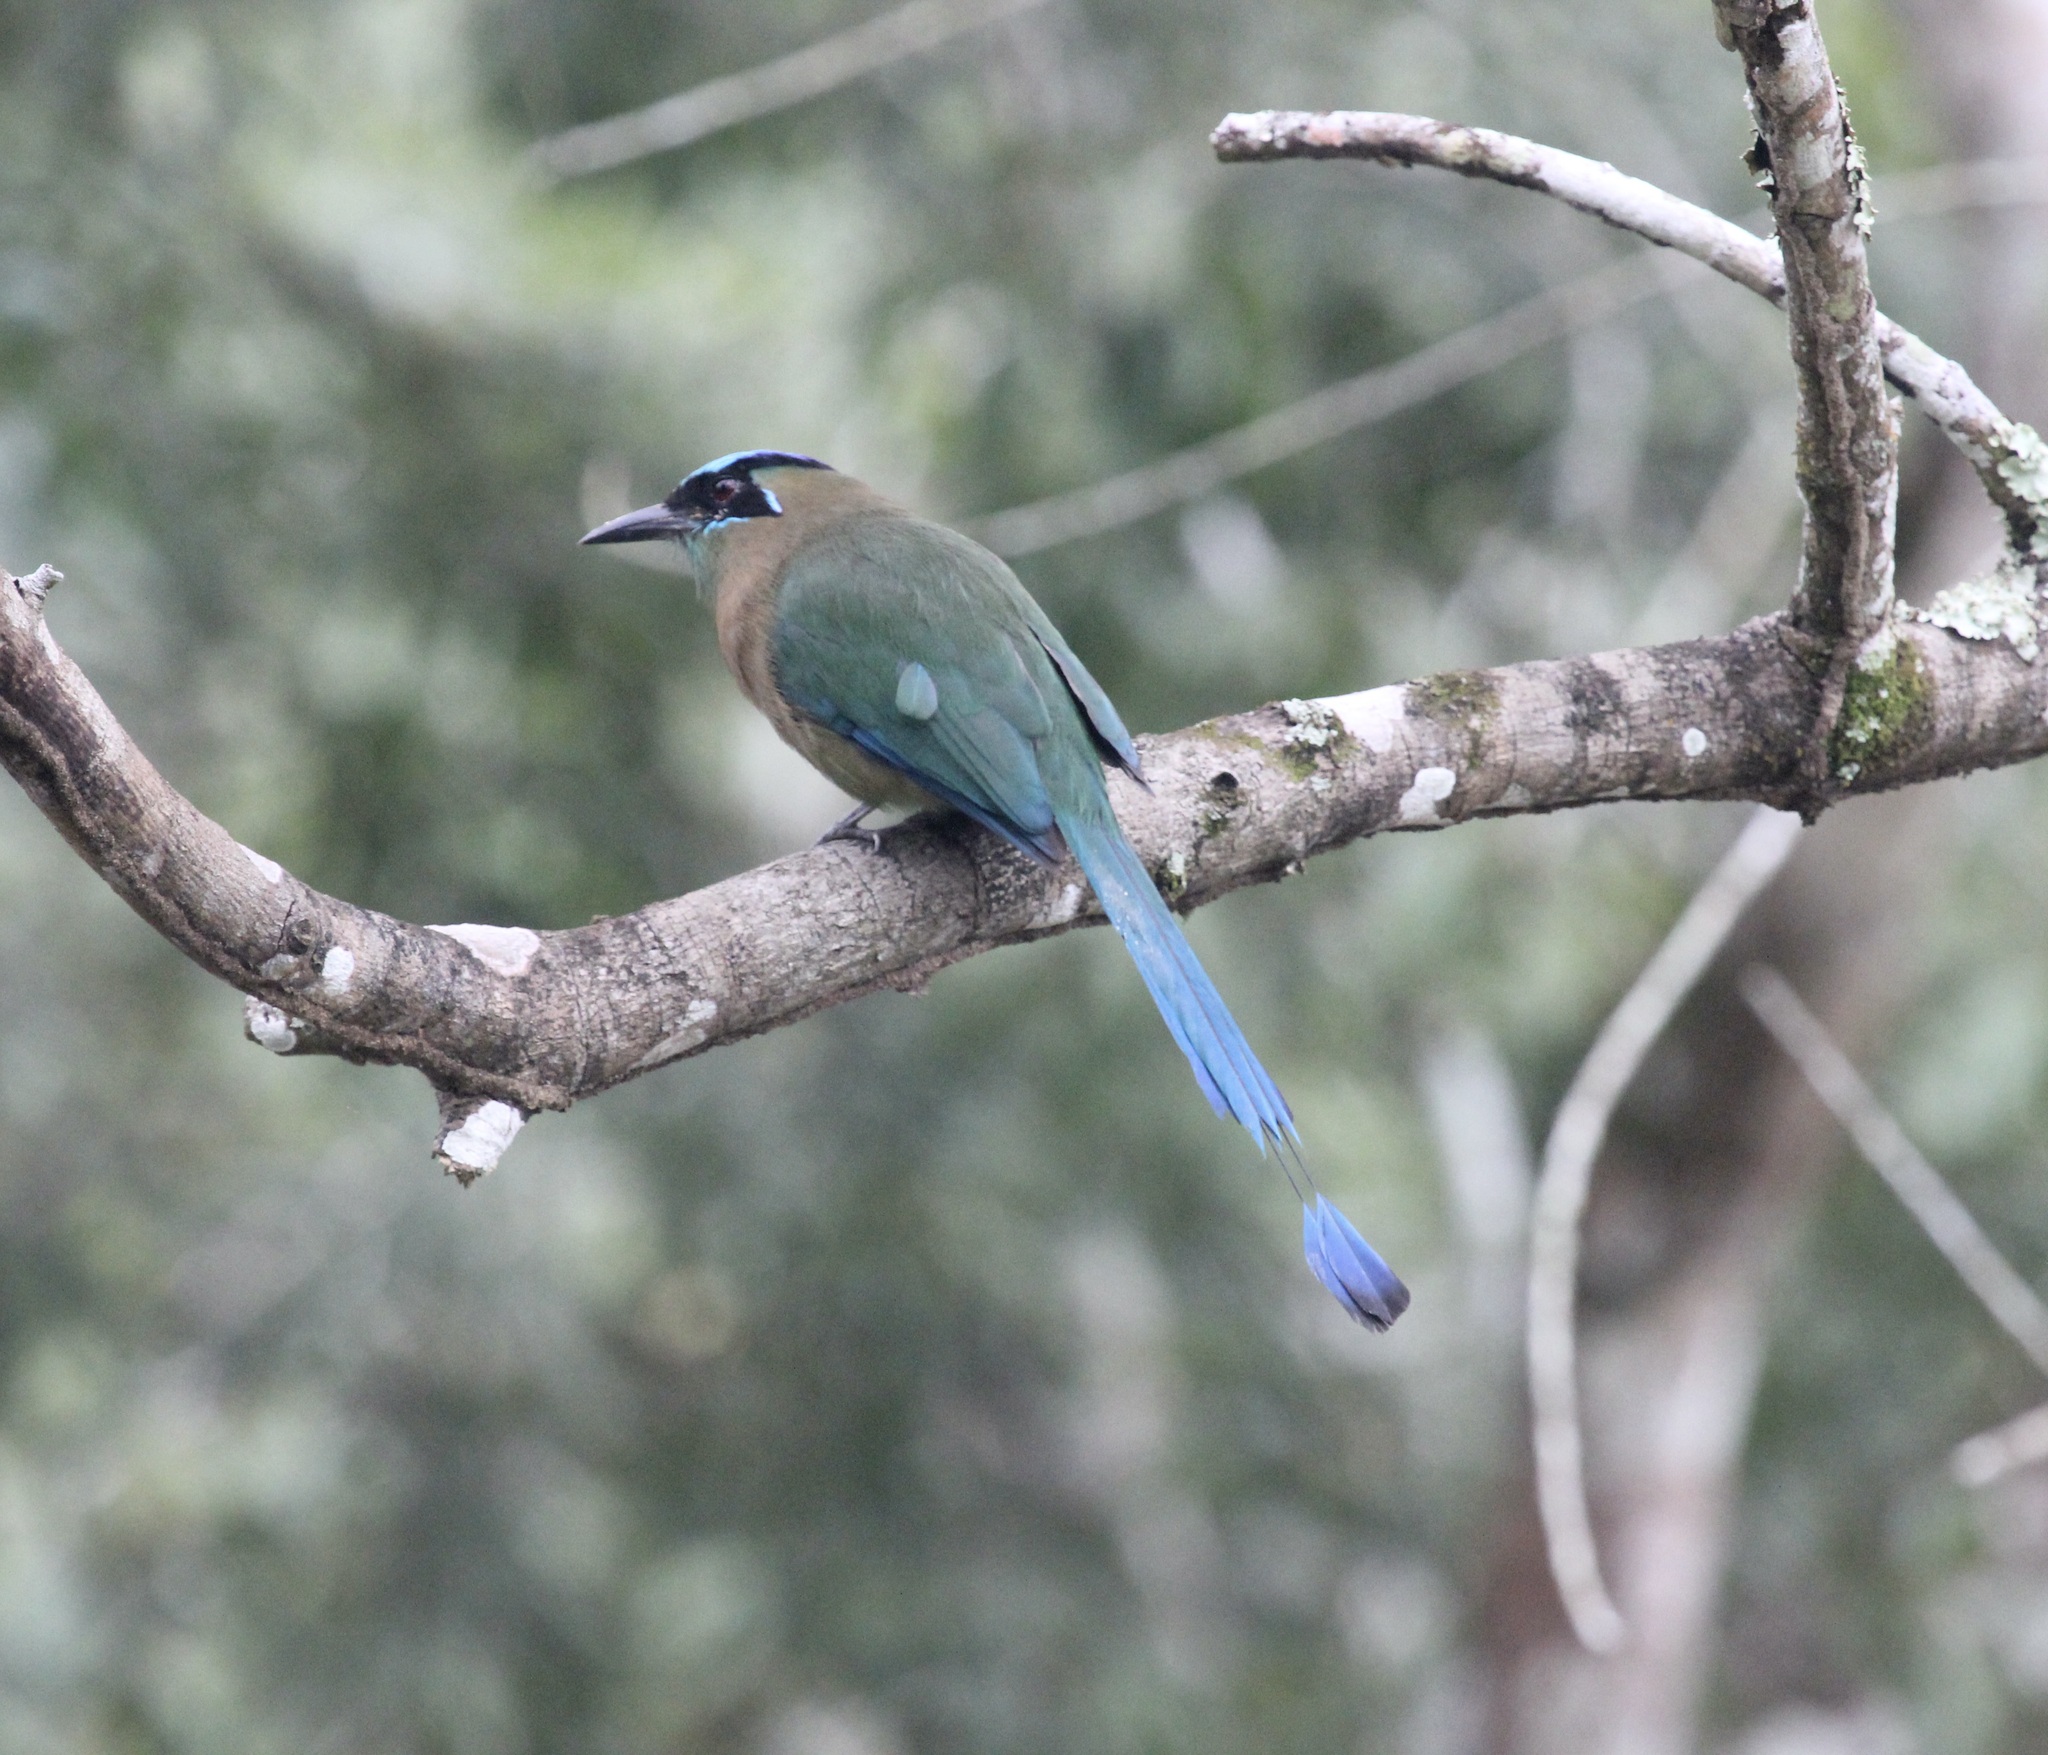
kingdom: Animalia
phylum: Chordata
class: Aves
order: Coraciiformes
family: Momotidae
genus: Momotus
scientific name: Momotus lessonii
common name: Lesson's motmot
